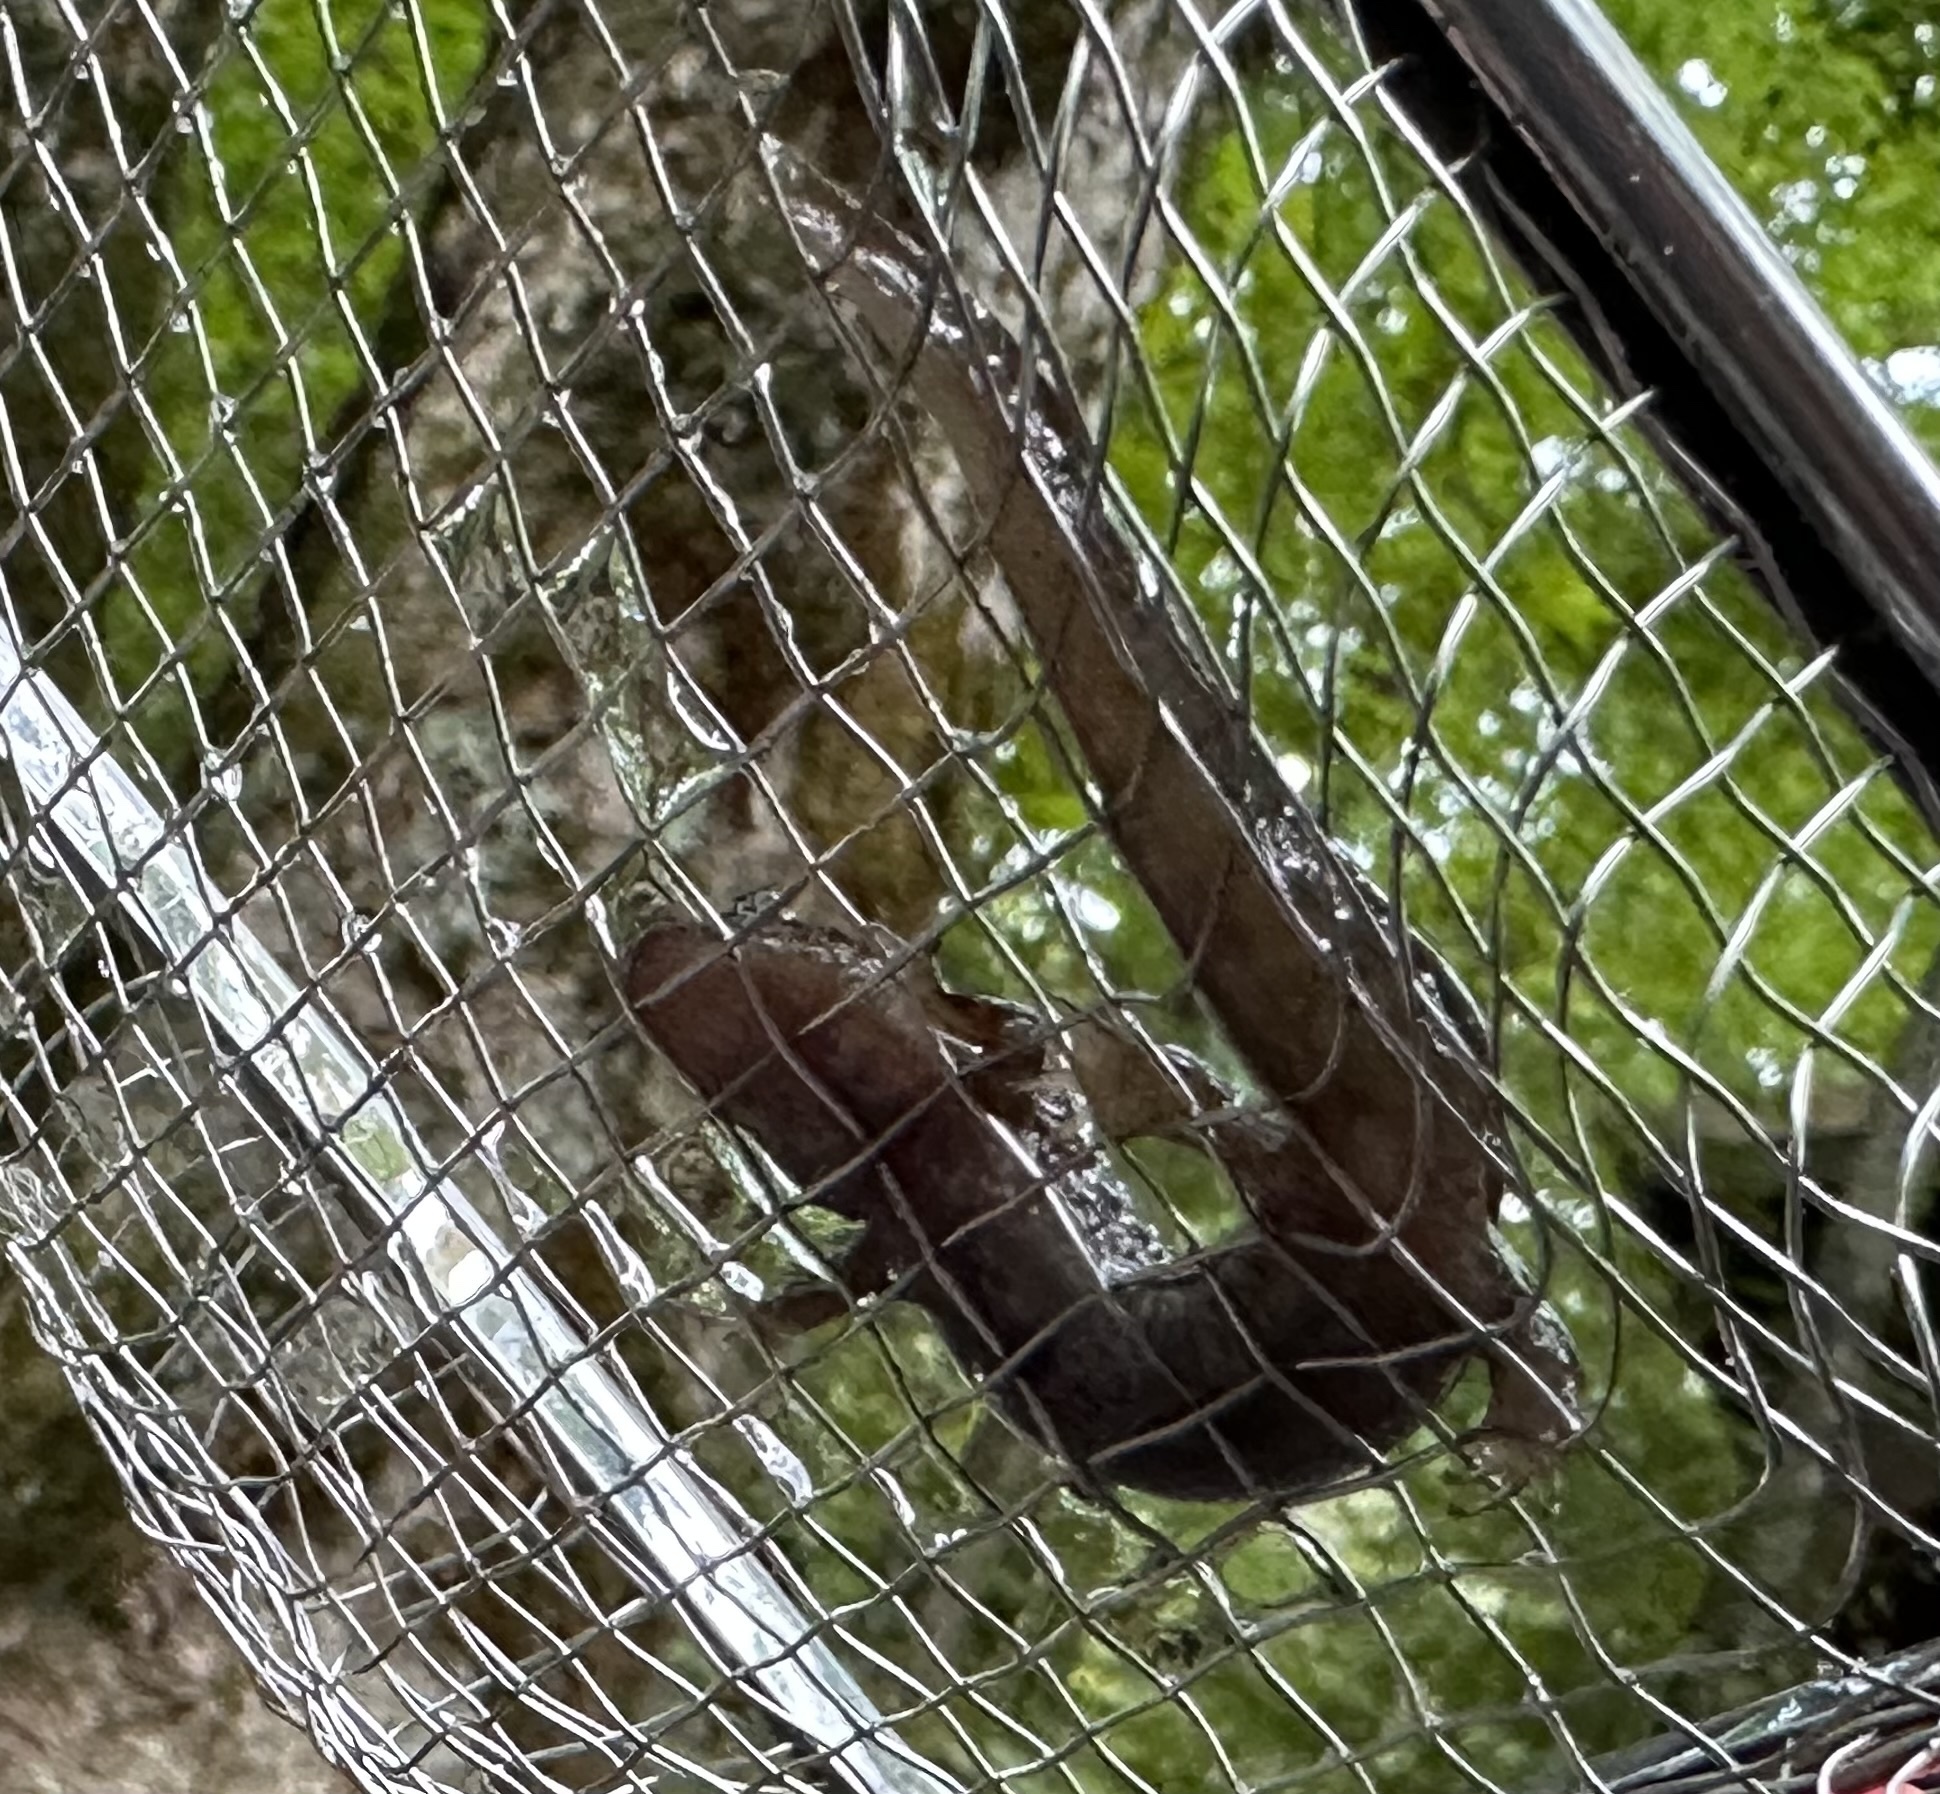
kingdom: Animalia
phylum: Chordata
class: Amphibia
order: Caudata
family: Plethodontidae
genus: Desmognathus
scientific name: Desmognathus
